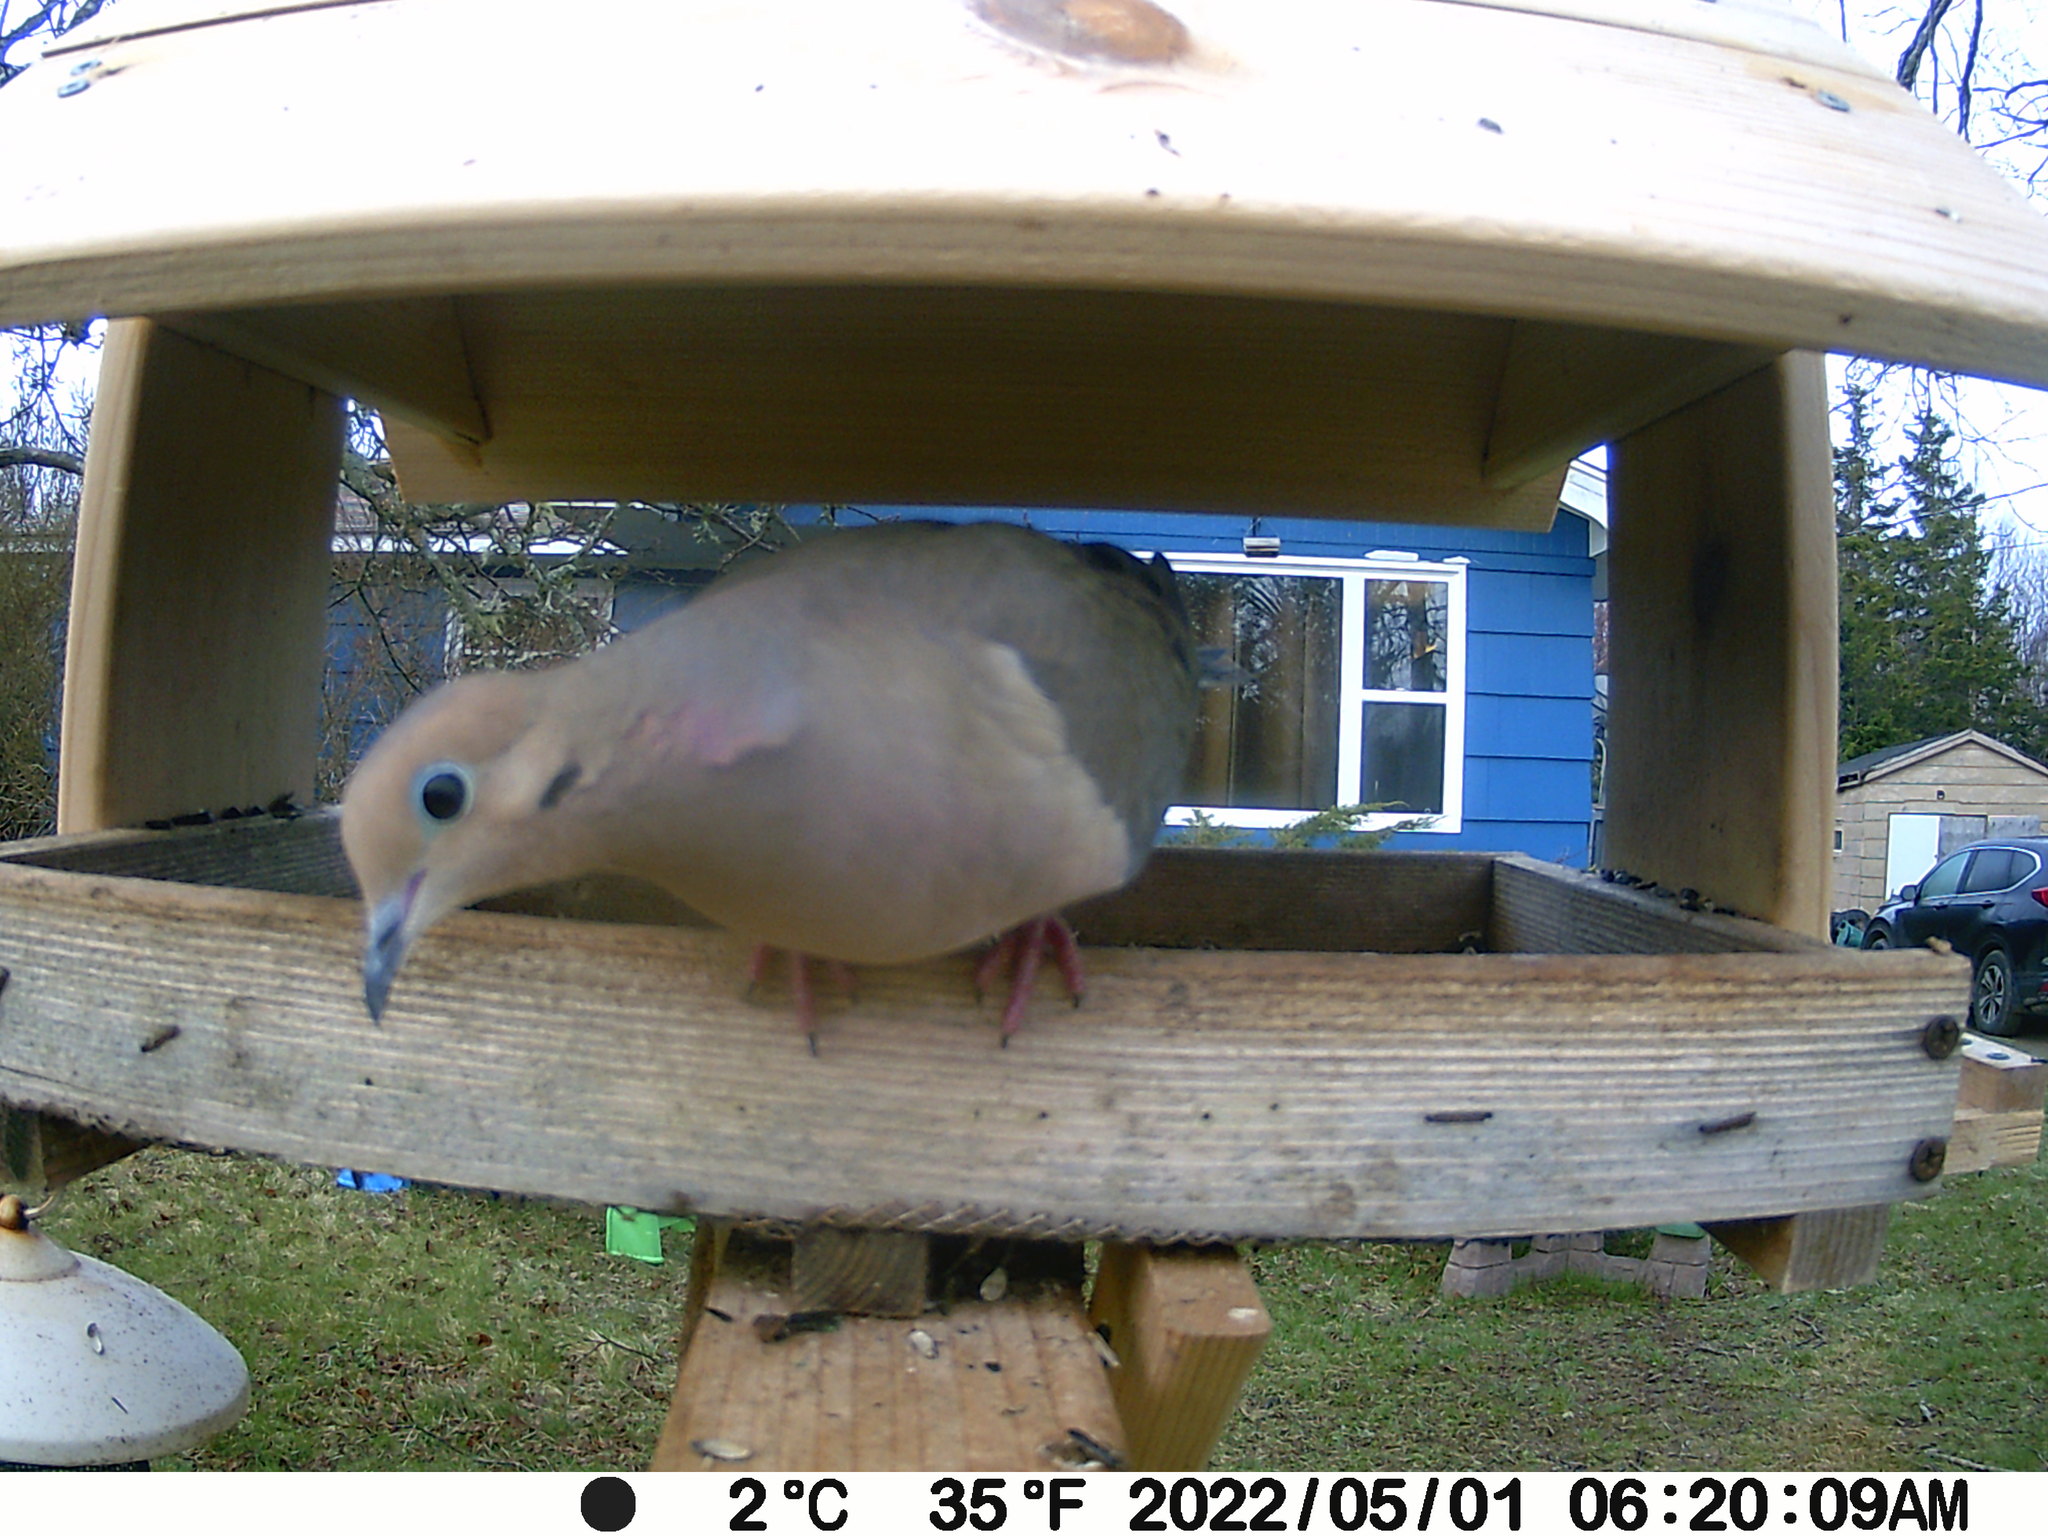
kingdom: Animalia
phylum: Chordata
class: Aves
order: Columbiformes
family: Columbidae
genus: Zenaida
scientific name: Zenaida macroura
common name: Mourning dove
